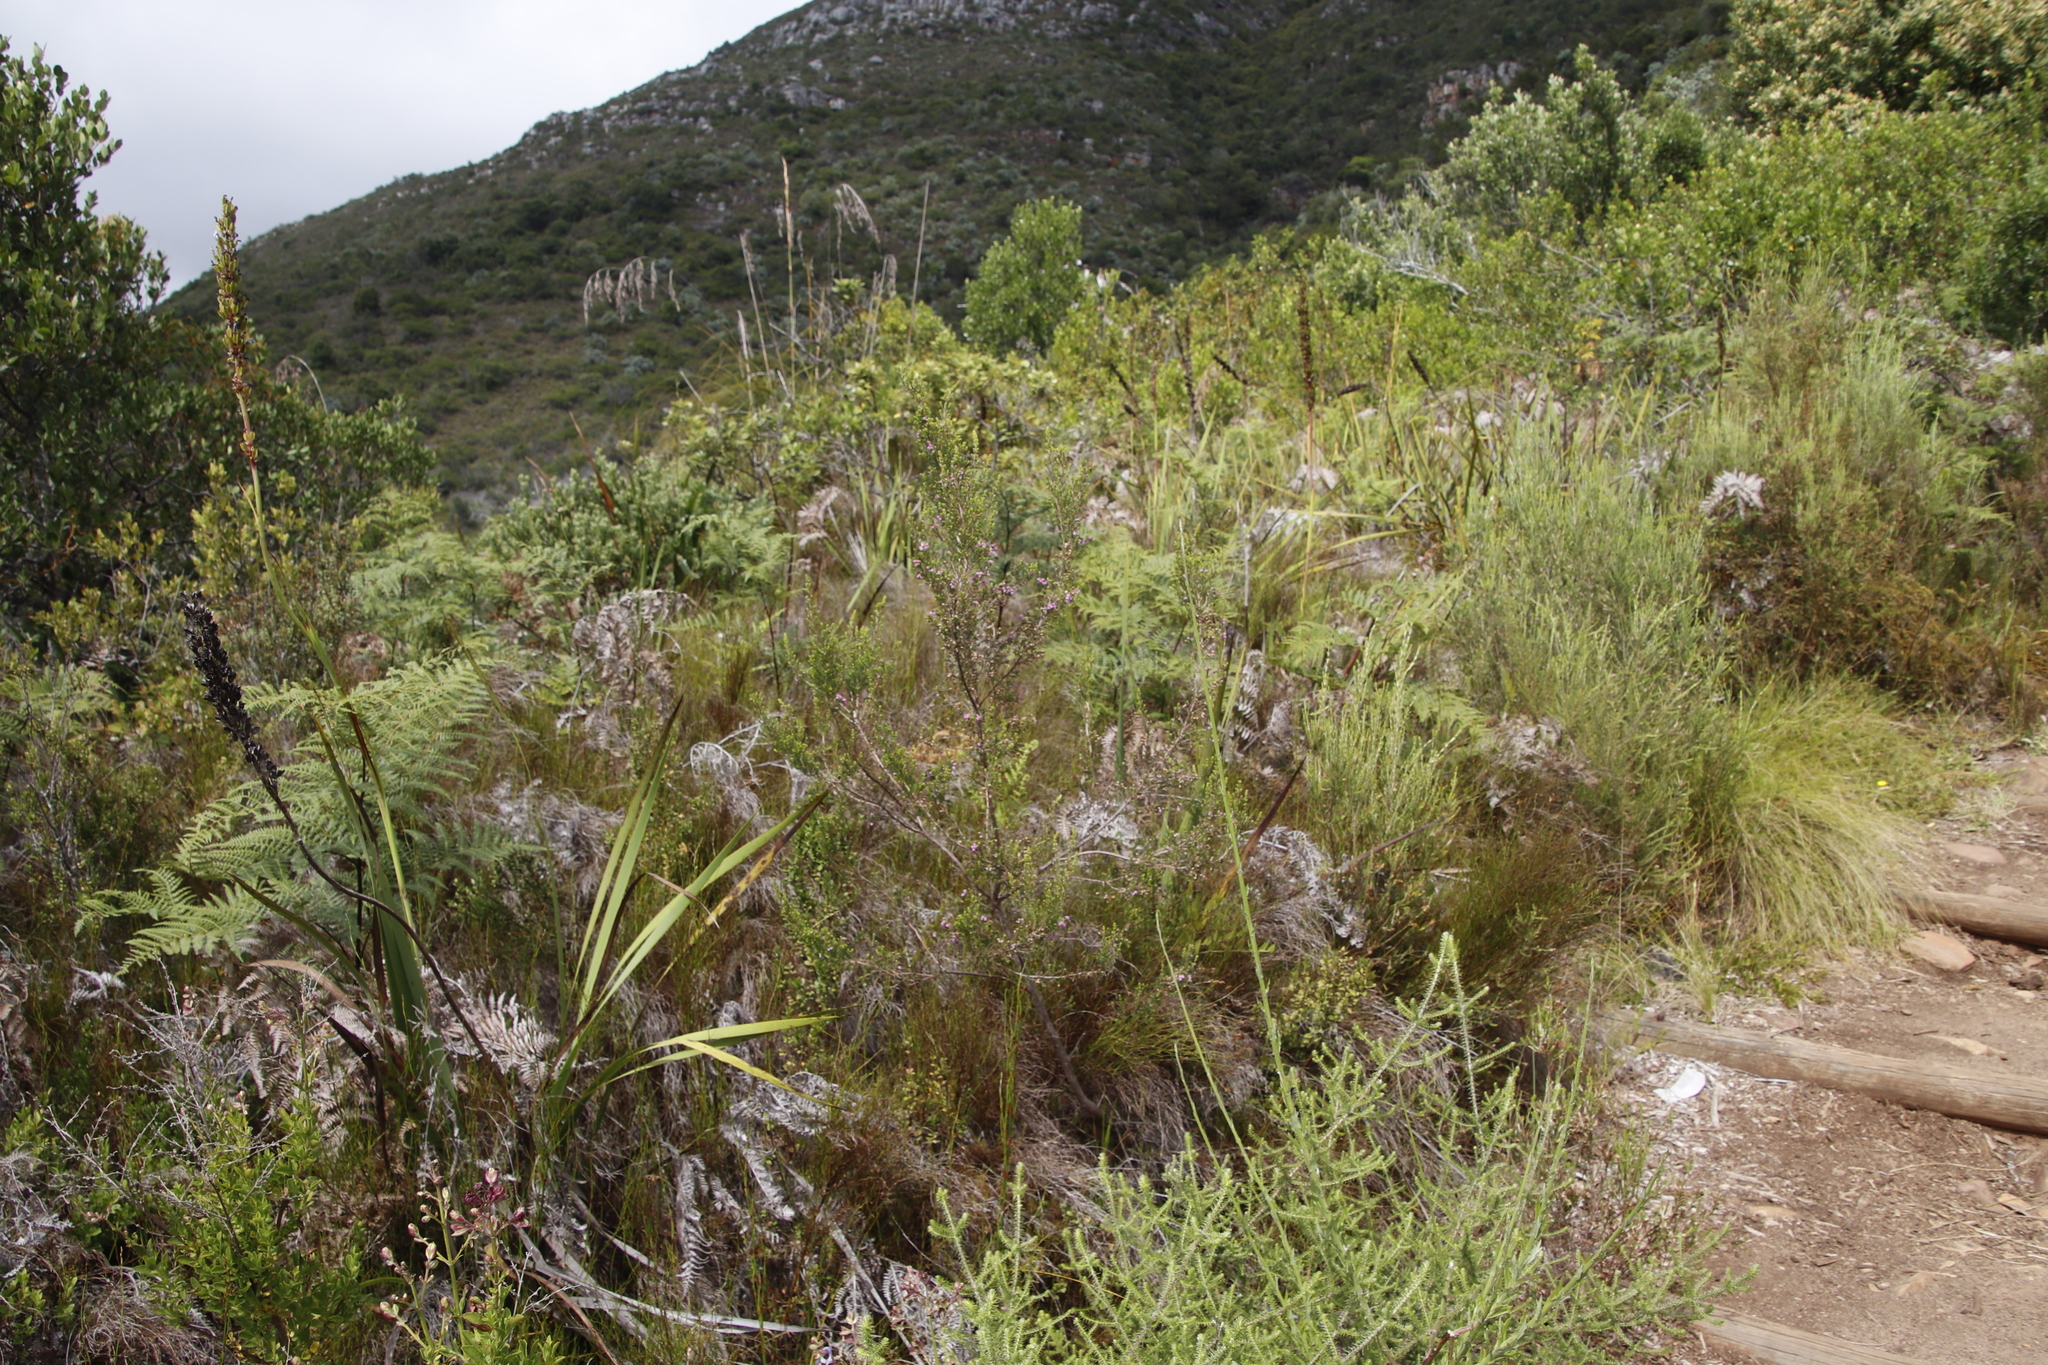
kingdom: Plantae
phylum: Tracheophyta
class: Magnoliopsida
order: Ericales
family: Ericaceae
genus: Erica
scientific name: Erica hirtiflora
